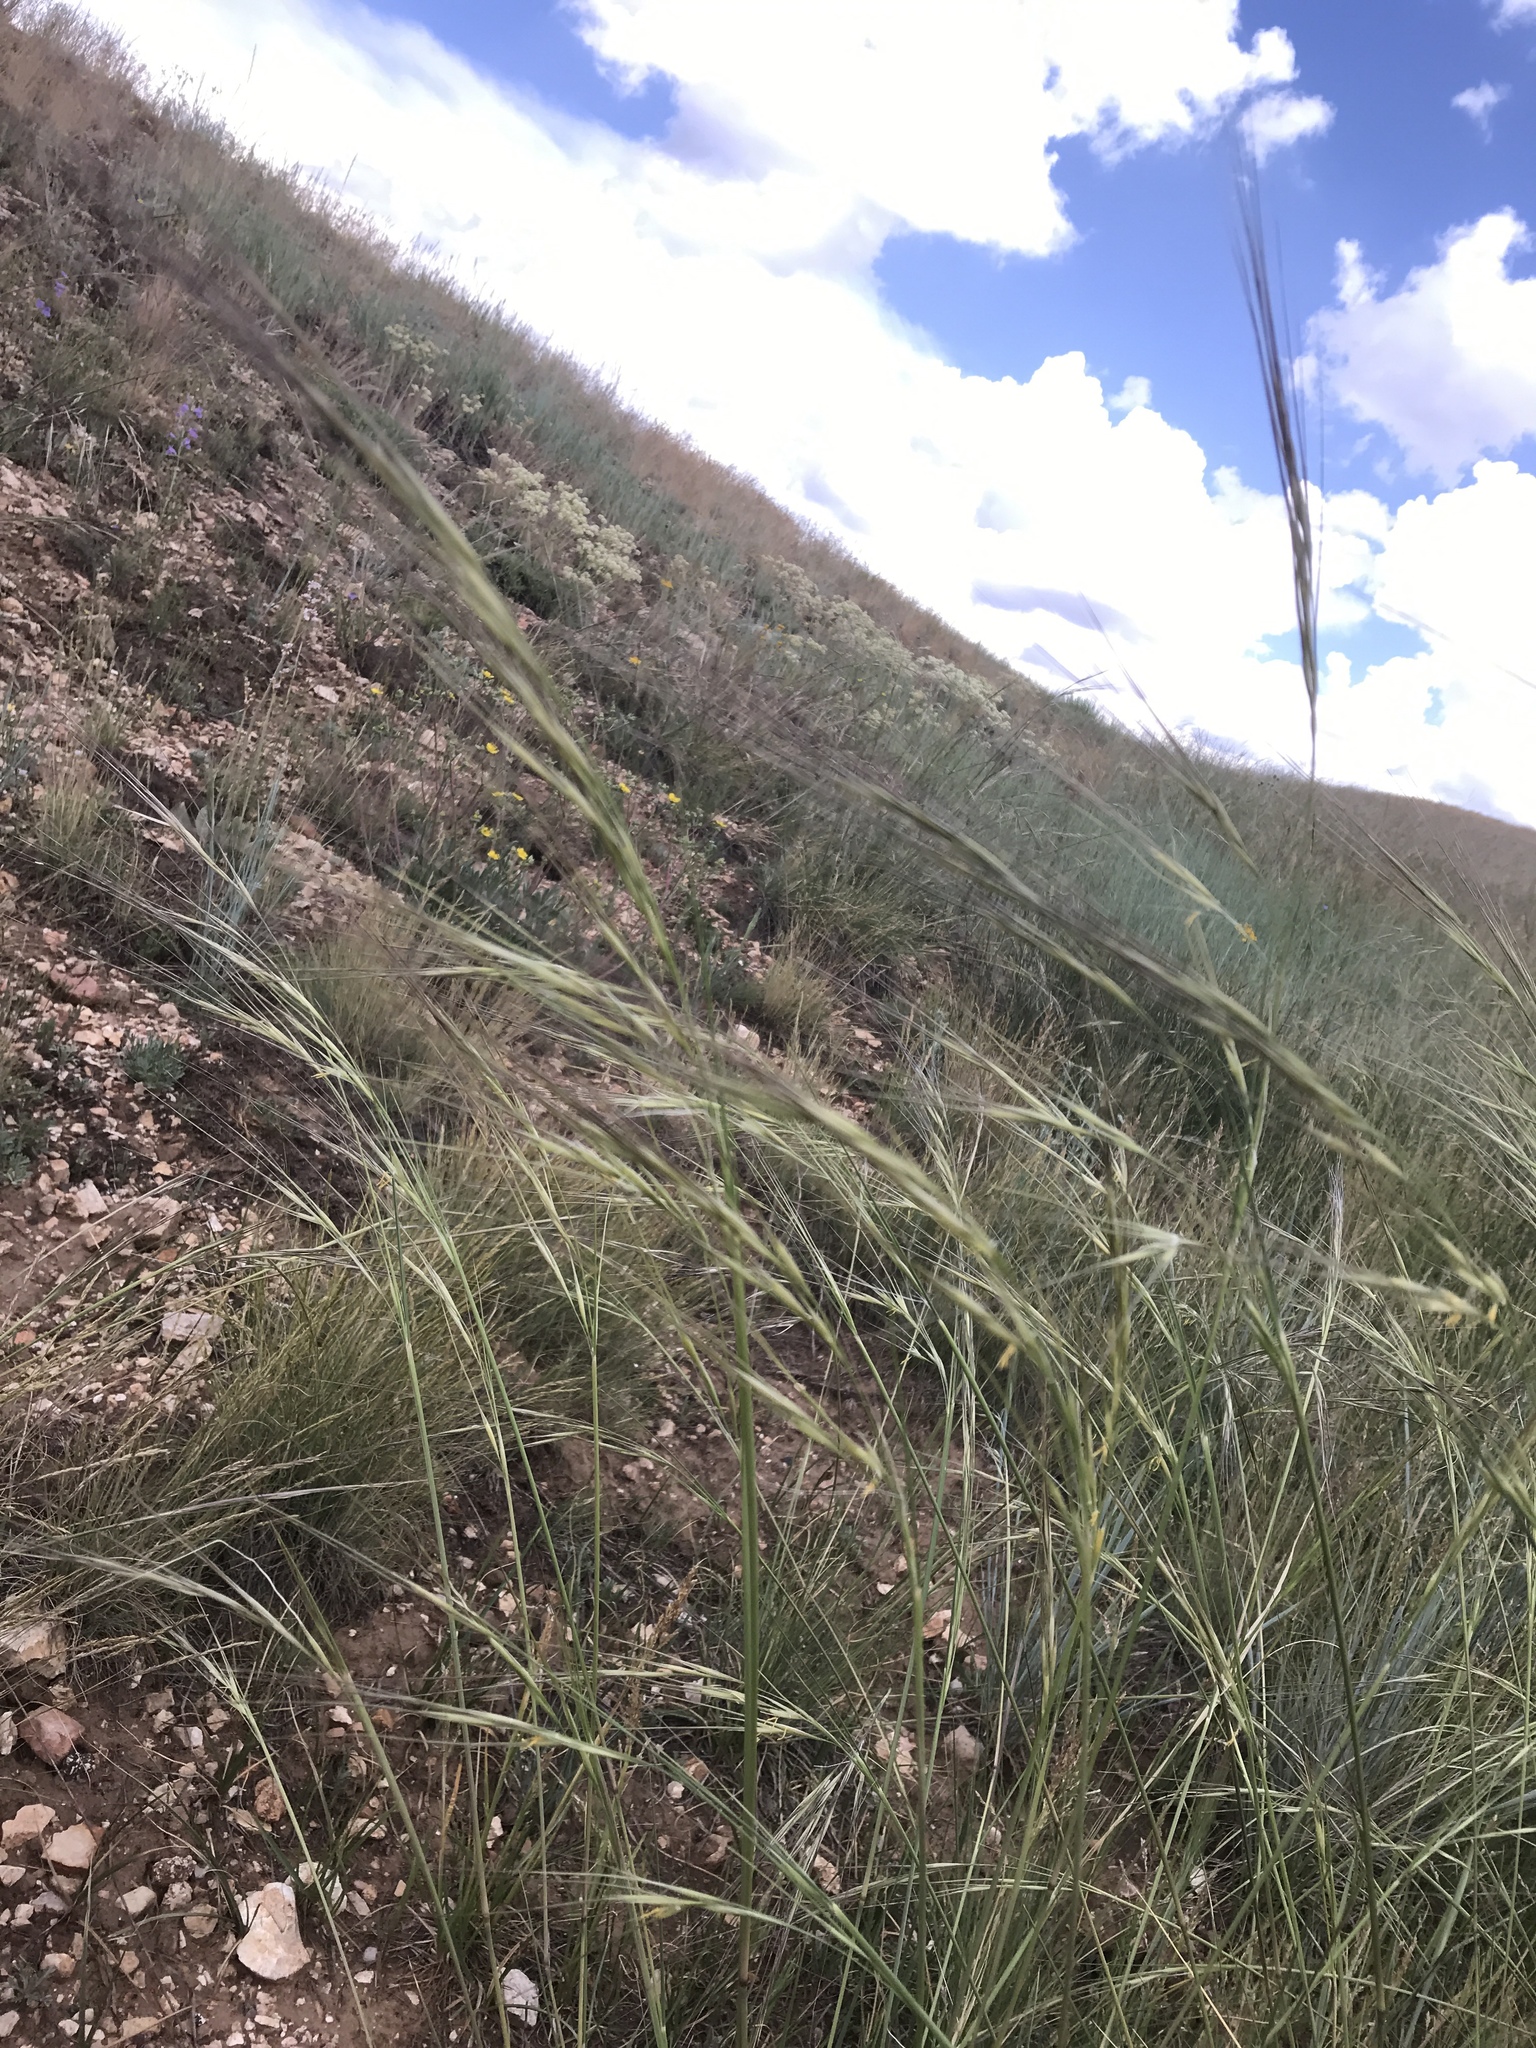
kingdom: Plantae
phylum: Tracheophyta
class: Liliopsida
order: Poales
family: Poaceae
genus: Hesperostipa
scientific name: Hesperostipa comata
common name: Needle-and-thread grass
